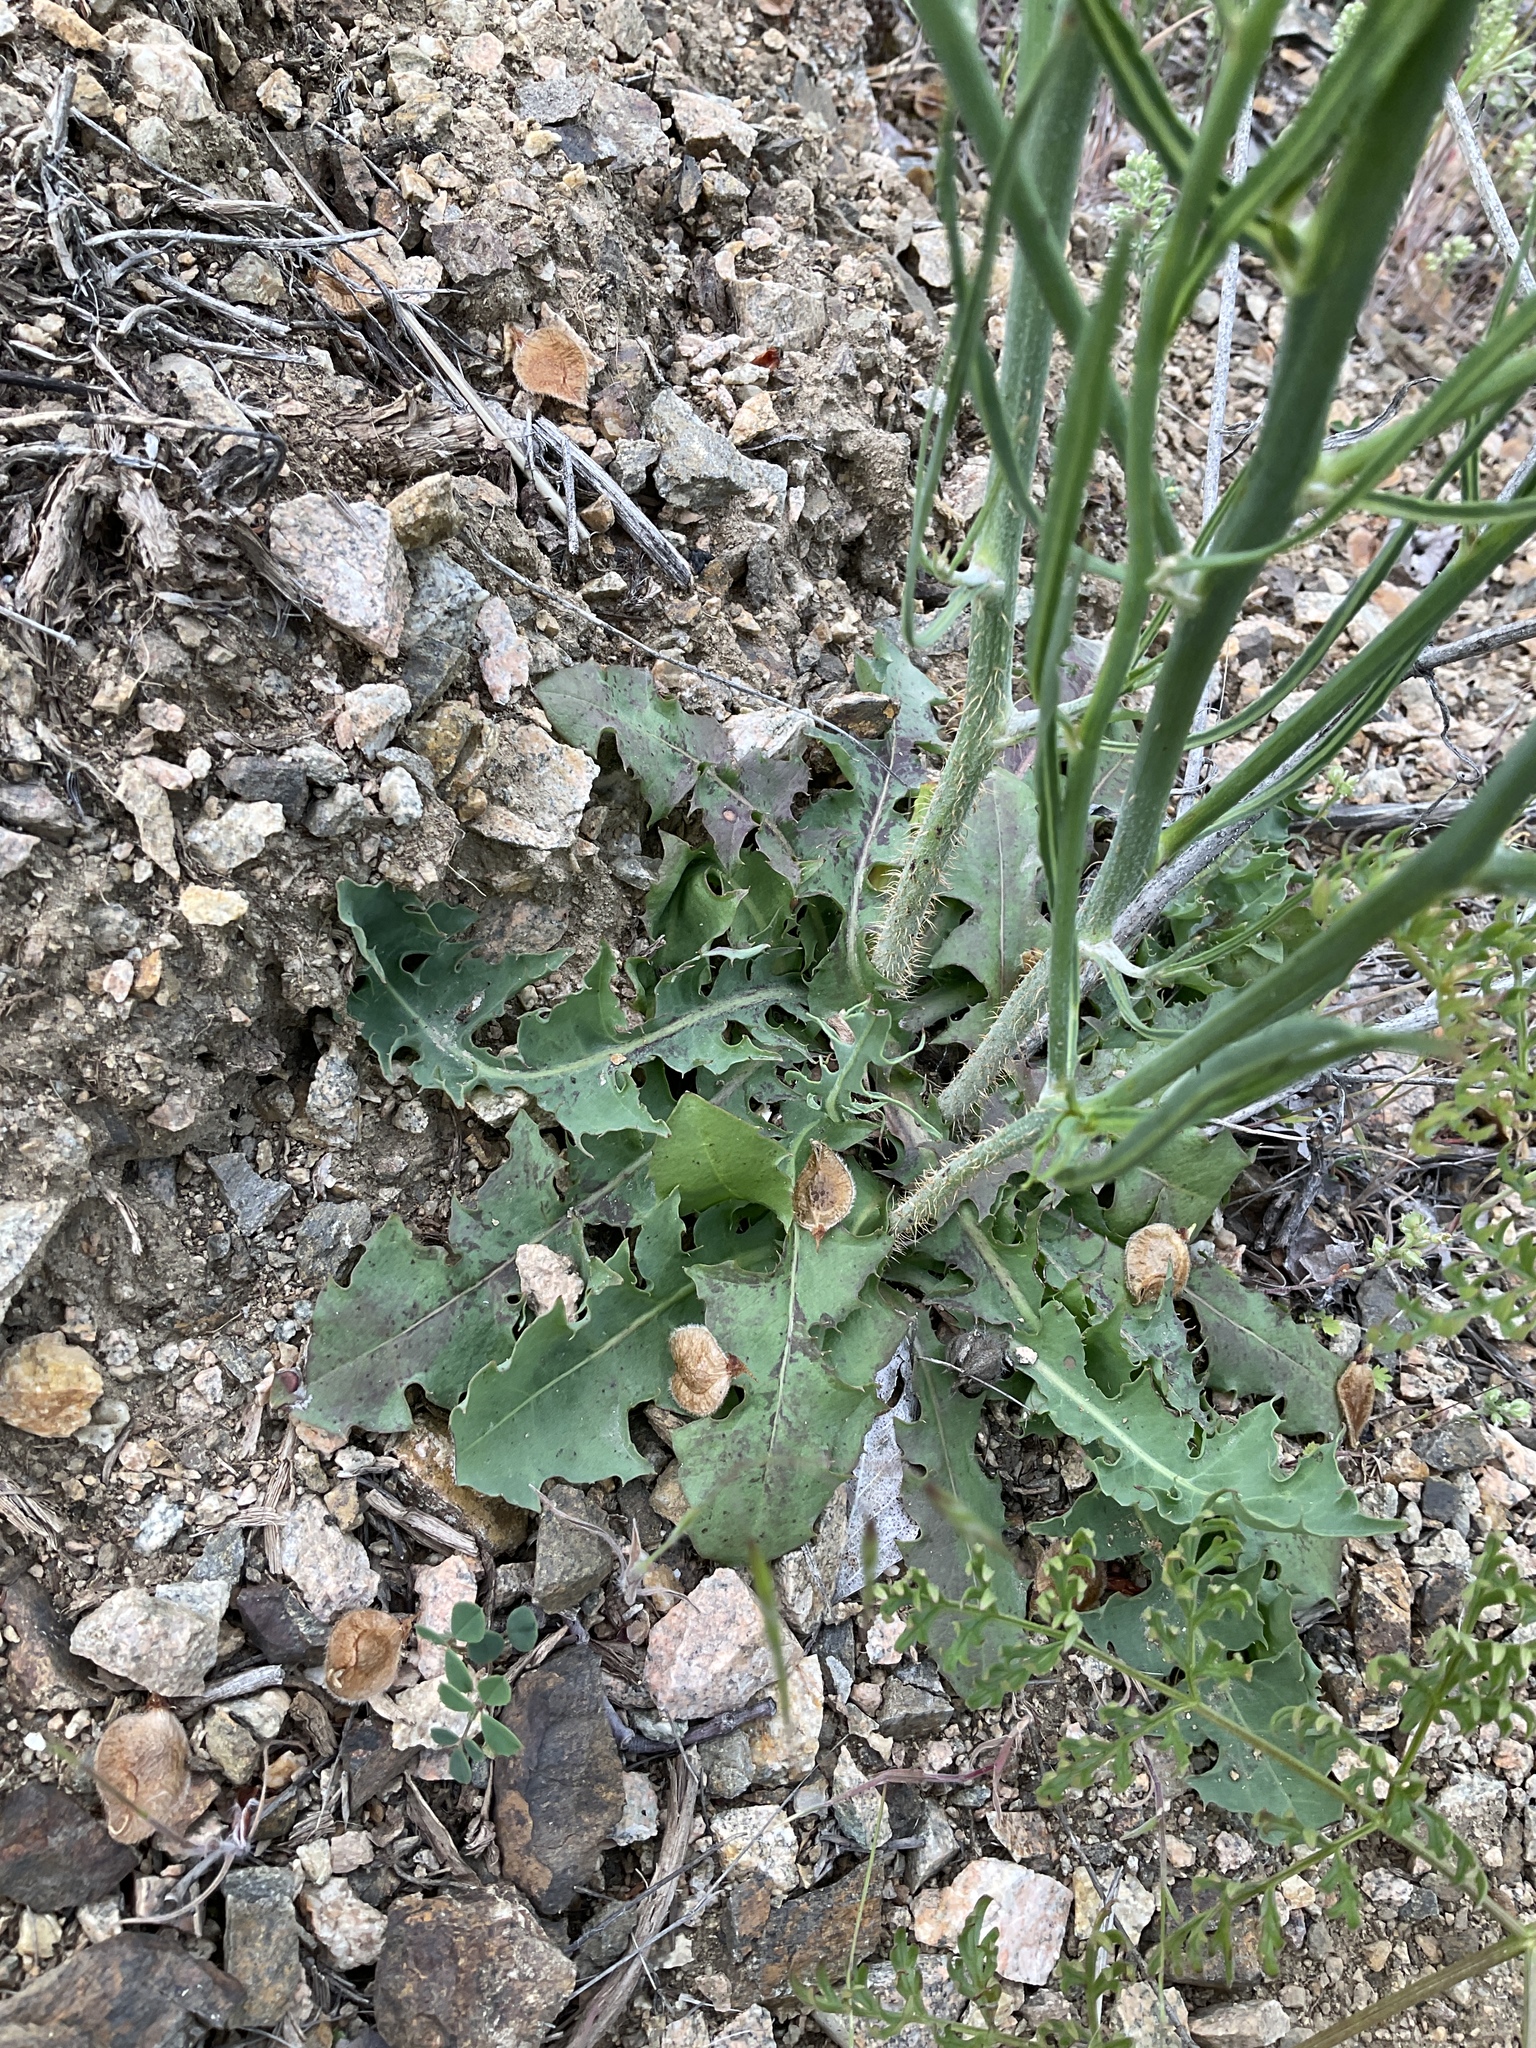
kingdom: Plantae
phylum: Tracheophyta
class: Magnoliopsida
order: Asterales
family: Asteraceae
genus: Chondrilla
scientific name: Chondrilla juncea
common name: Skeleton weed
